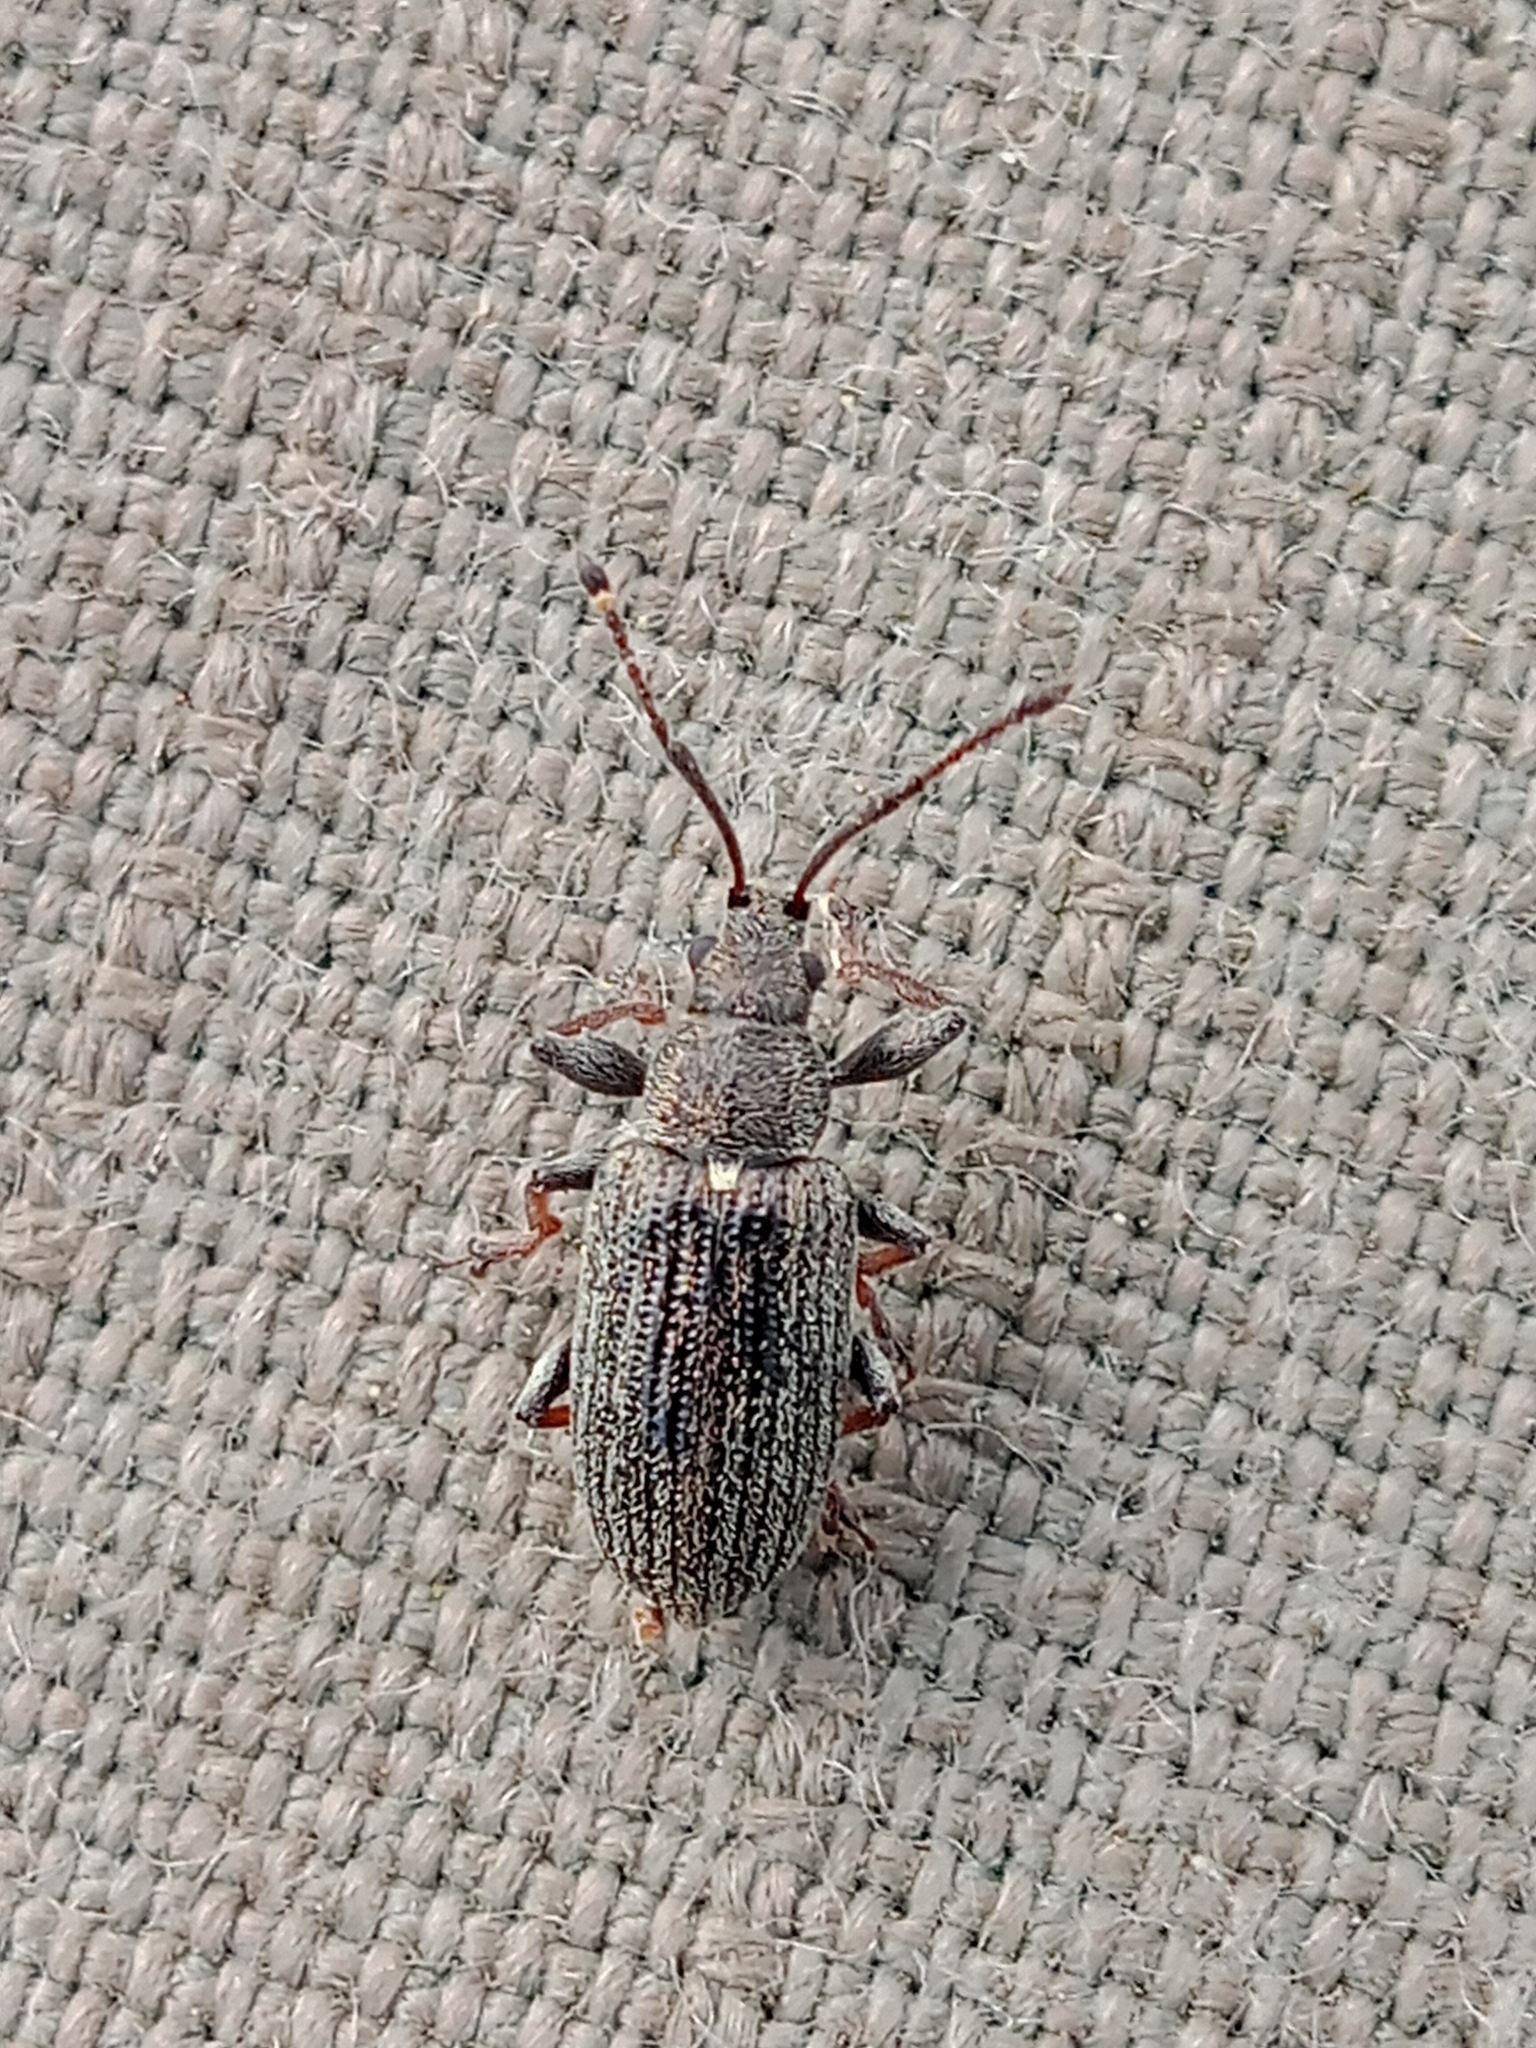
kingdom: Animalia
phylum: Arthropoda
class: Insecta
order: Coleoptera
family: Curculionidae
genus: Phyllobius
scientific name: Phyllobius pyri
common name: Common leaf weevil
